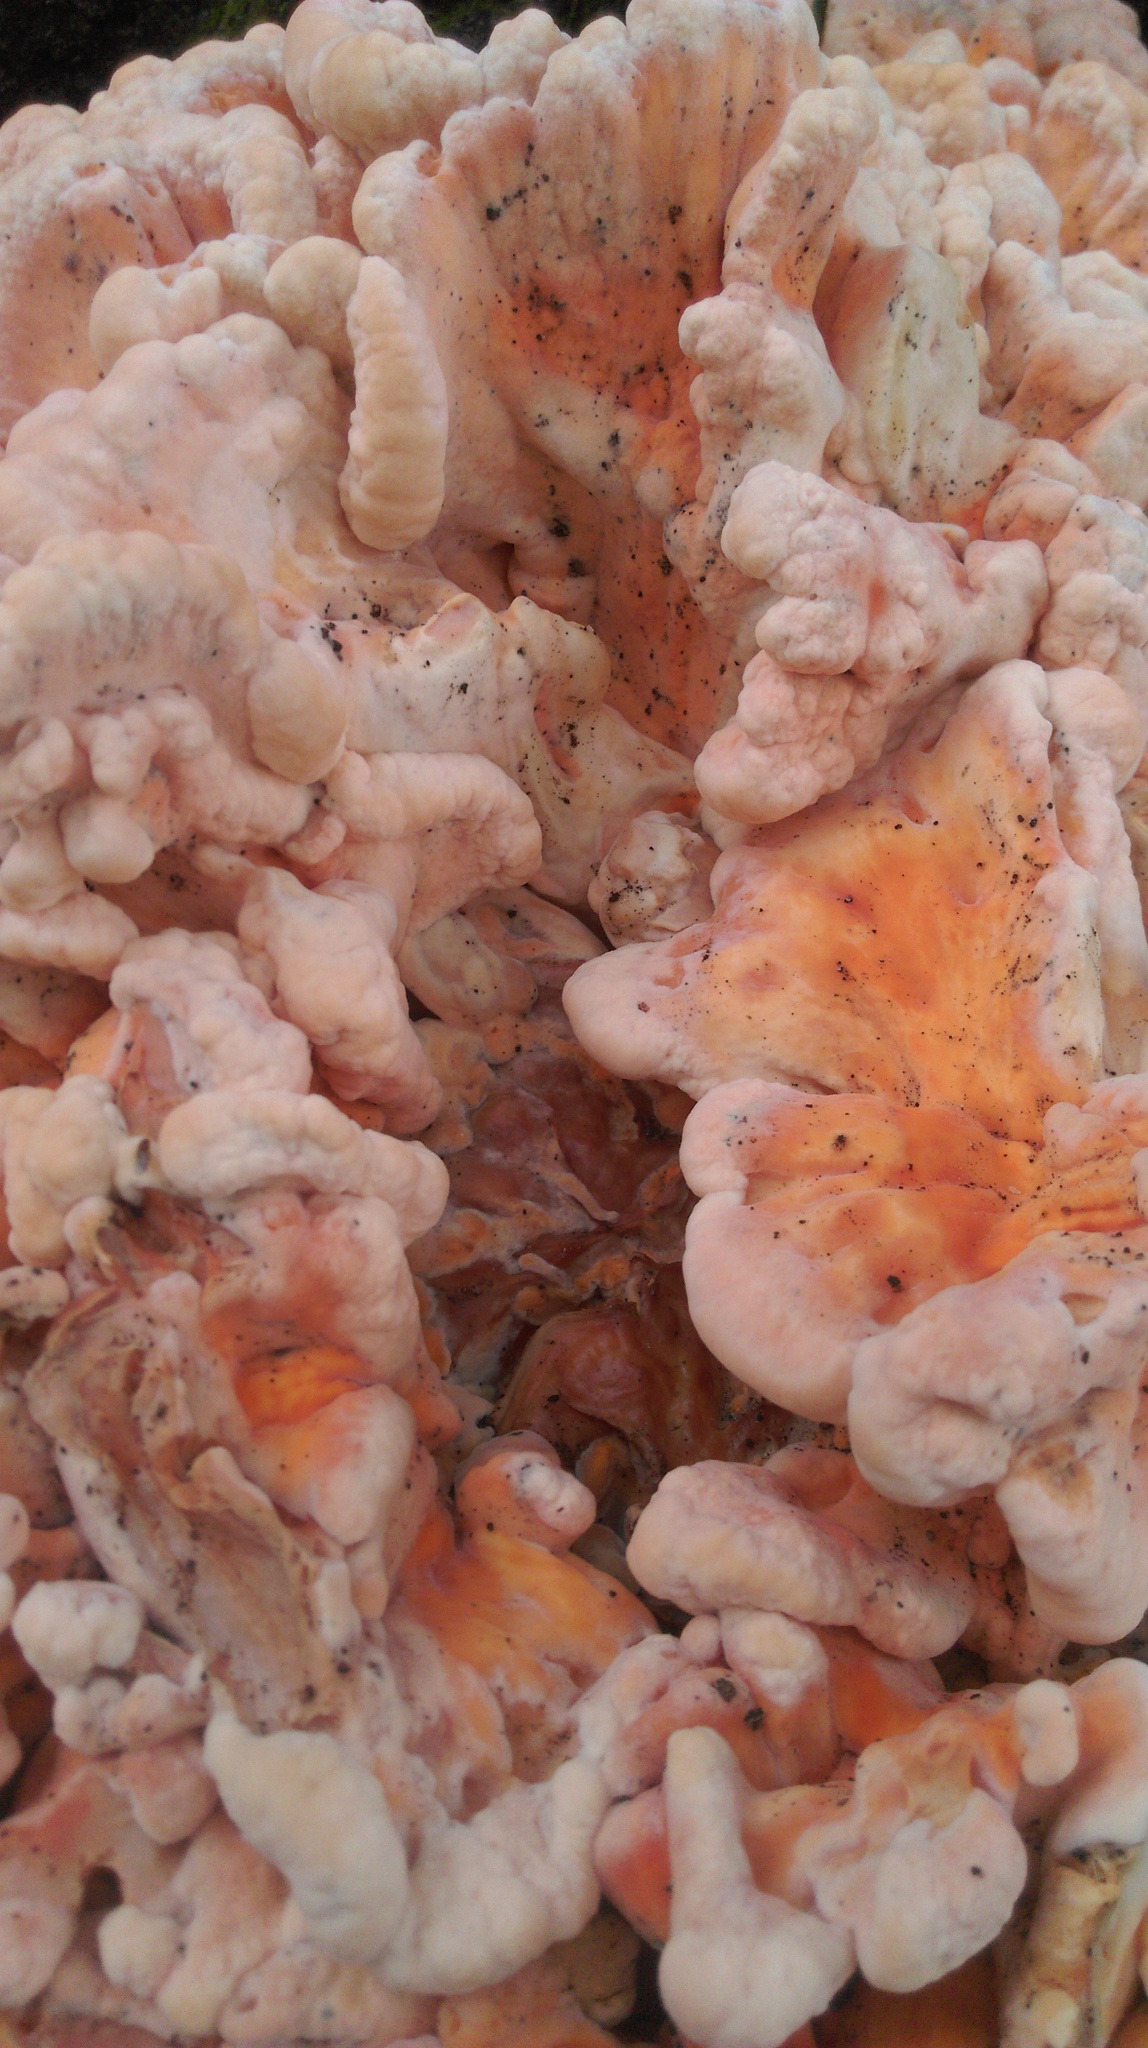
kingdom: Fungi
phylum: Basidiomycota
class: Agaricomycetes
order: Polyporales
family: Laetiporaceae
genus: Laetiporus
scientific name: Laetiporus sulphureus
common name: Chicken of the woods
